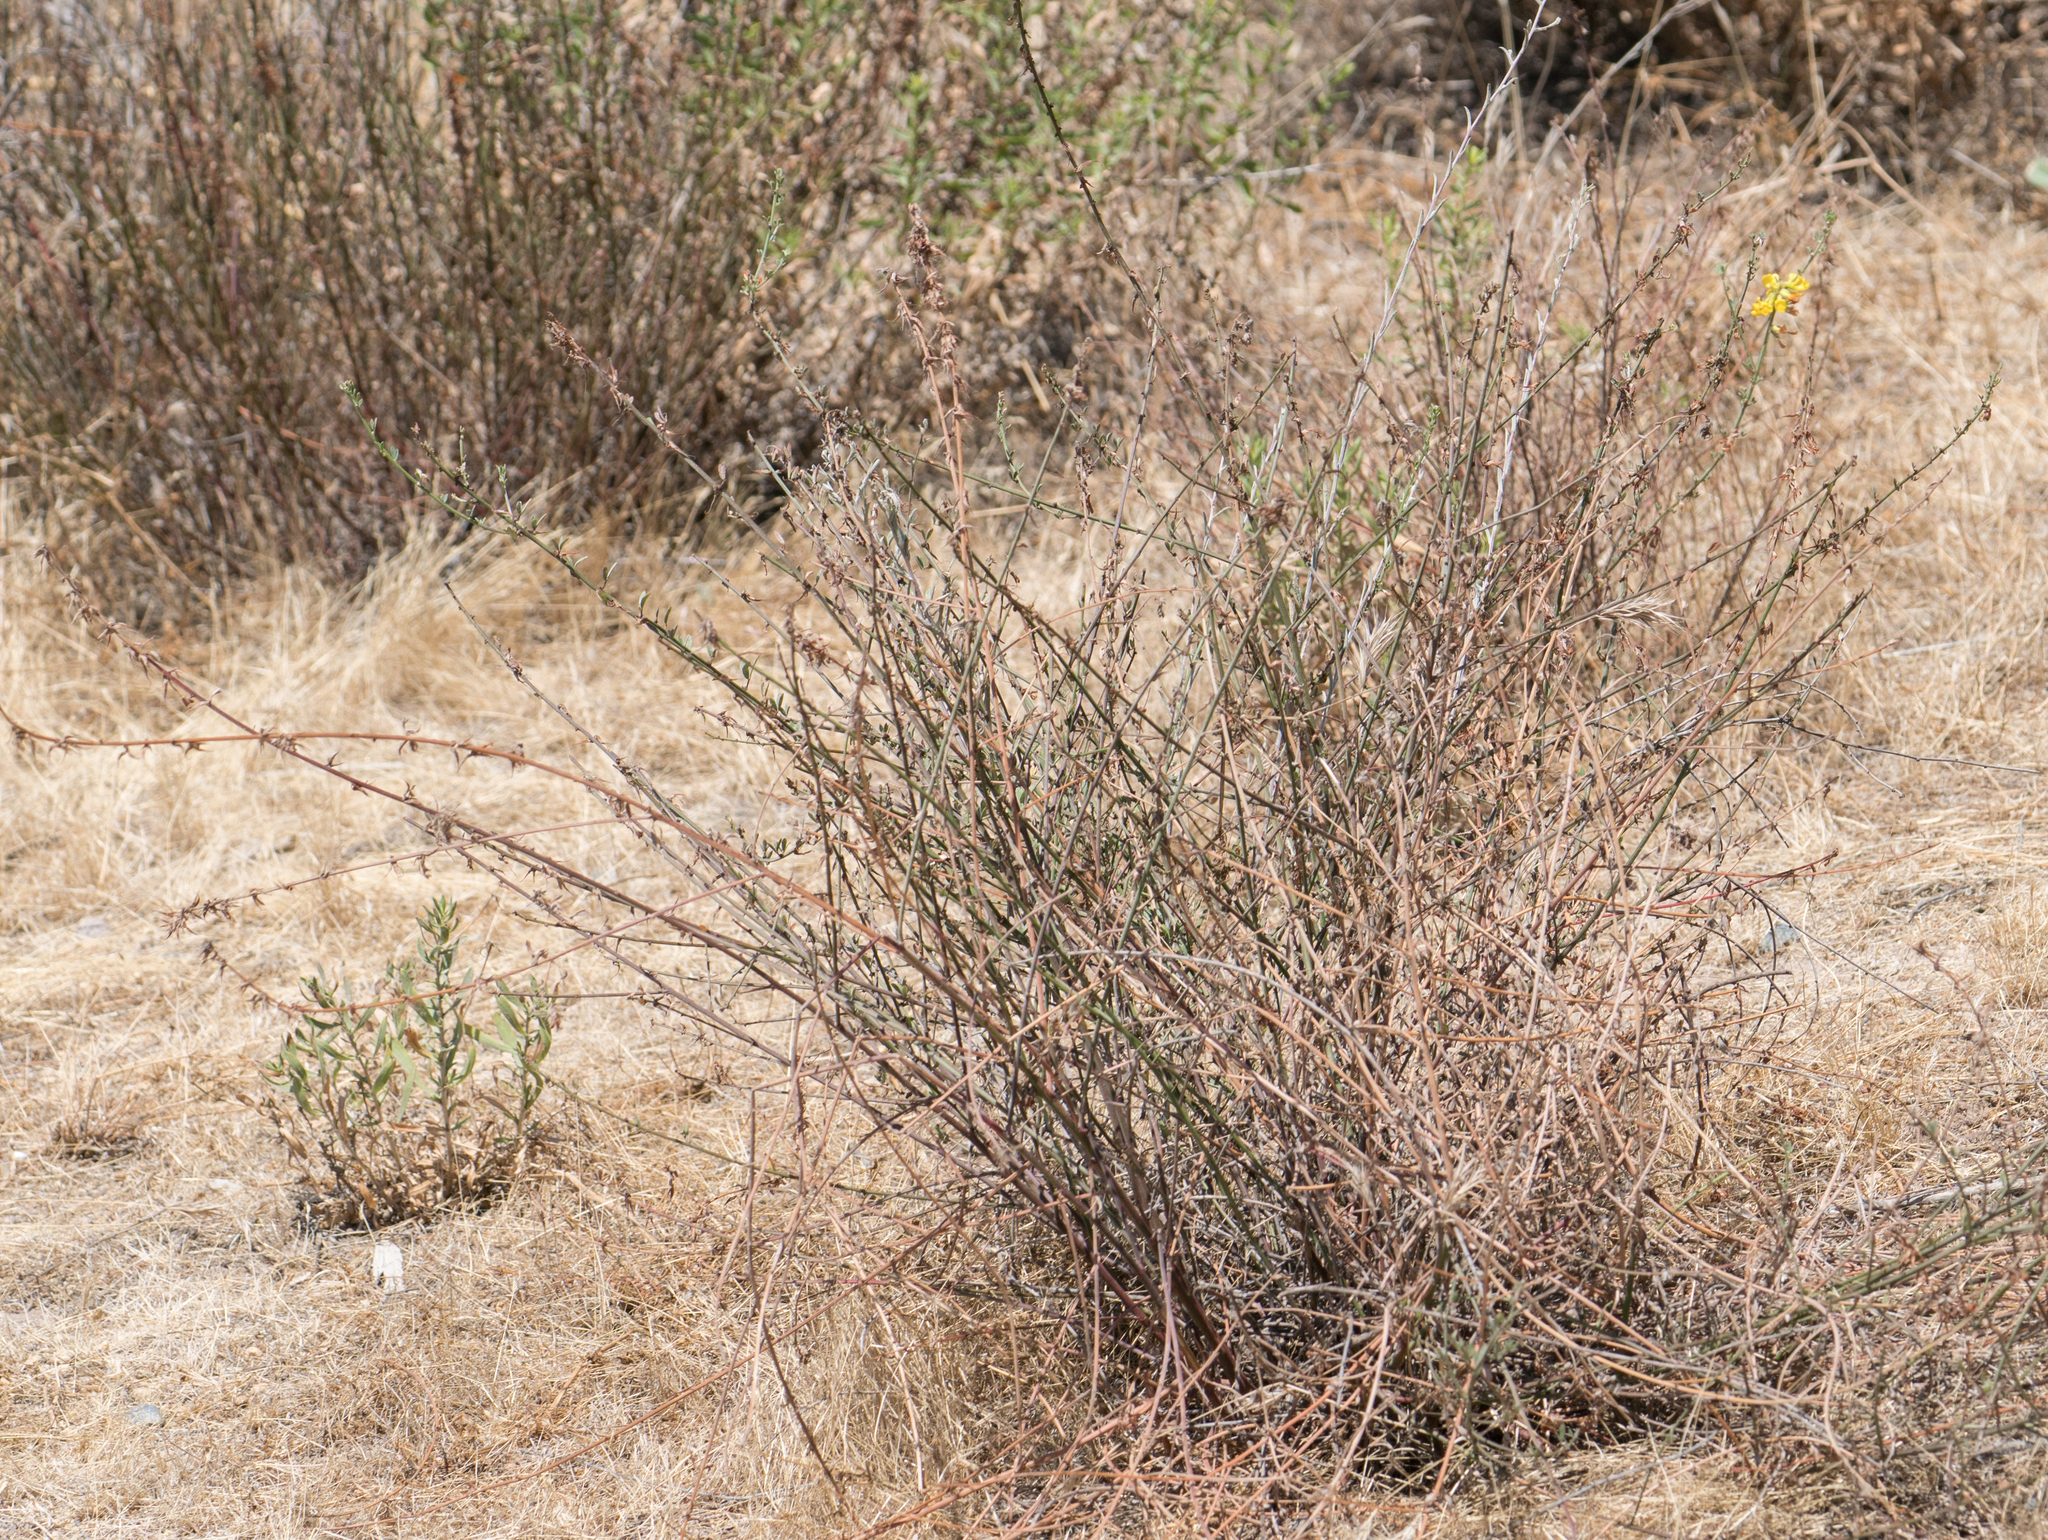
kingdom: Plantae
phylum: Tracheophyta
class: Magnoliopsida
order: Fabales
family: Fabaceae
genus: Acmispon
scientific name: Acmispon glaber
